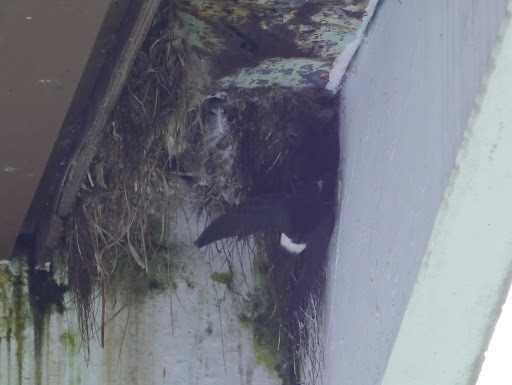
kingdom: Animalia
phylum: Chordata
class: Aves
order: Apodiformes
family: Apodidae
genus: Apus
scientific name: Apus affinis
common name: Little swift
